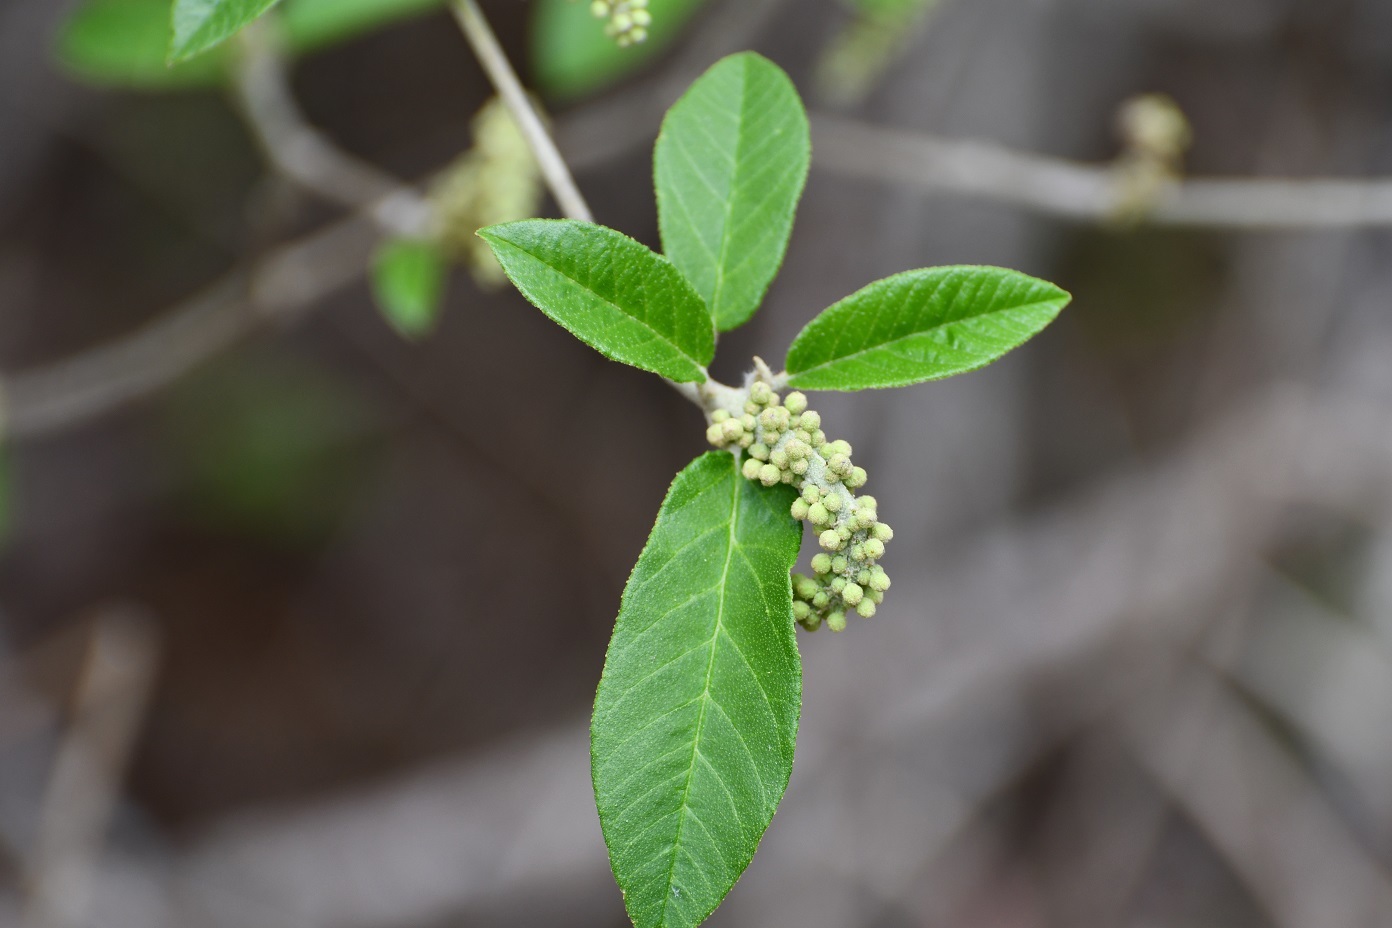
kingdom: Plantae
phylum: Tracheophyta
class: Magnoliopsida
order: Malpighiales
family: Euphorbiaceae
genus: Croton
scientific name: Croton cortesianus
